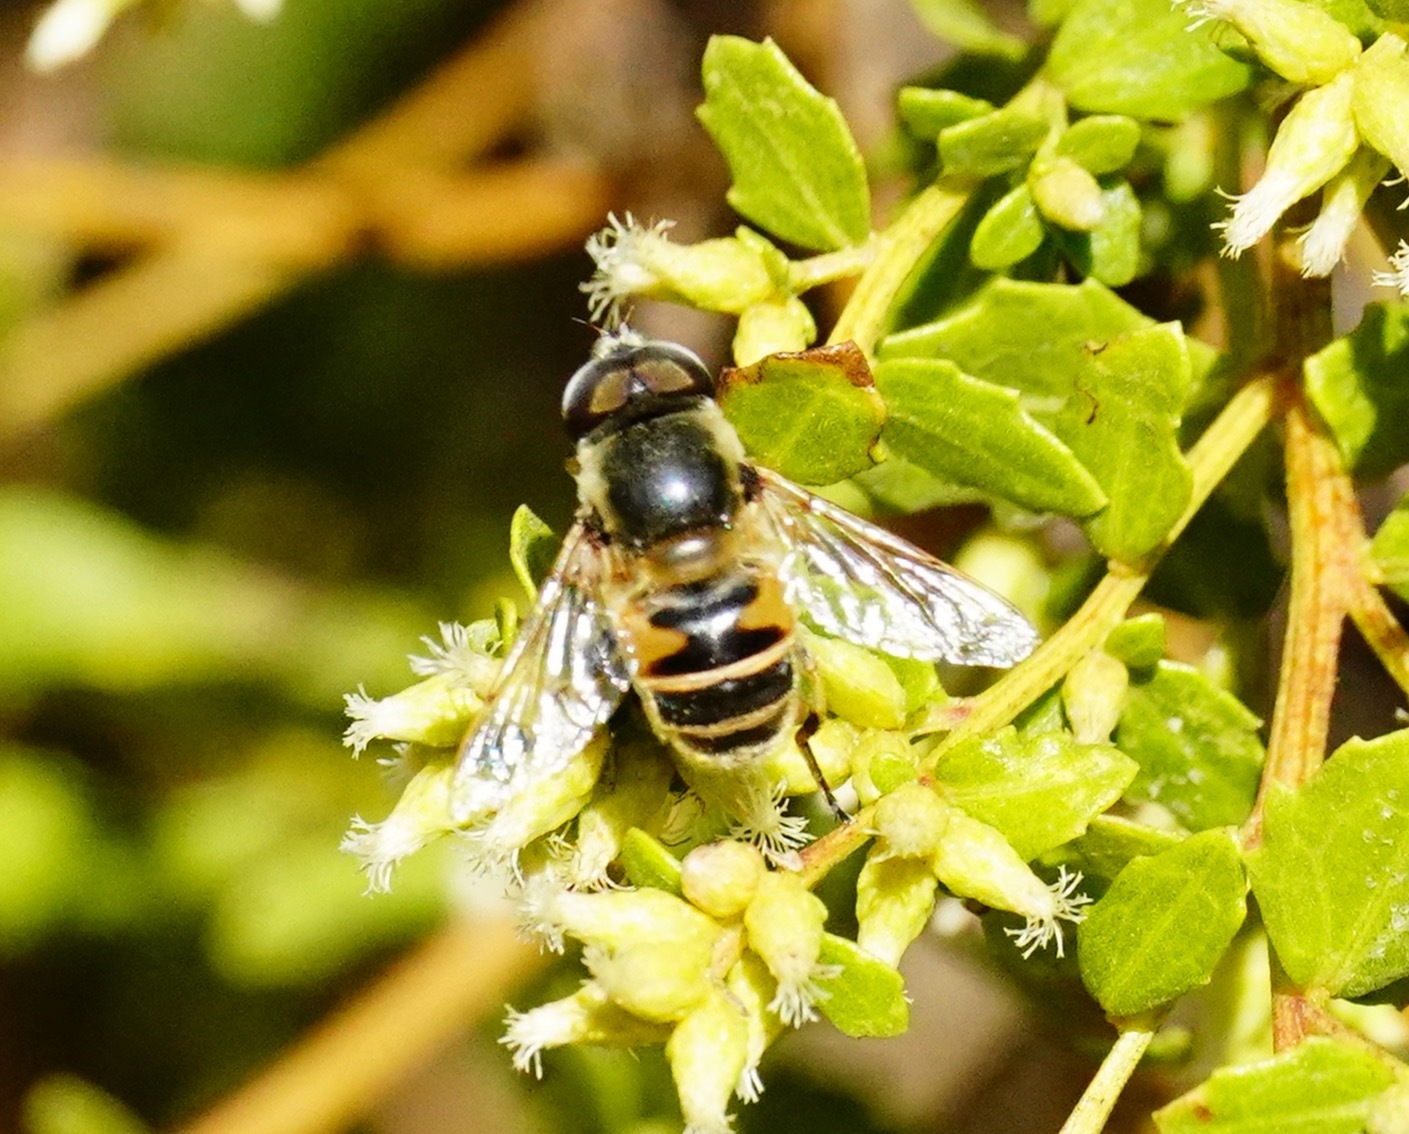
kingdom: Animalia
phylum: Arthropoda
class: Insecta
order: Diptera
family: Syrphidae
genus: Eristalis
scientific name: Eristalis hirta
